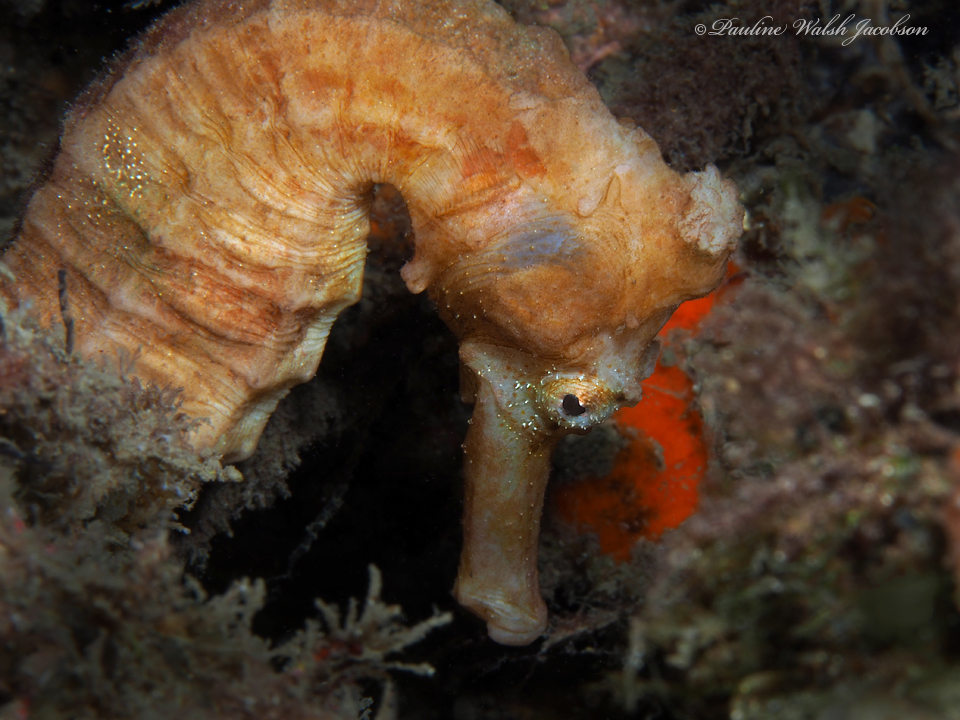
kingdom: Animalia
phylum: Chordata
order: Syngnathiformes
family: Syngnathidae
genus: Hippocampus
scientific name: Hippocampus reidi
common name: Slender seahorse
